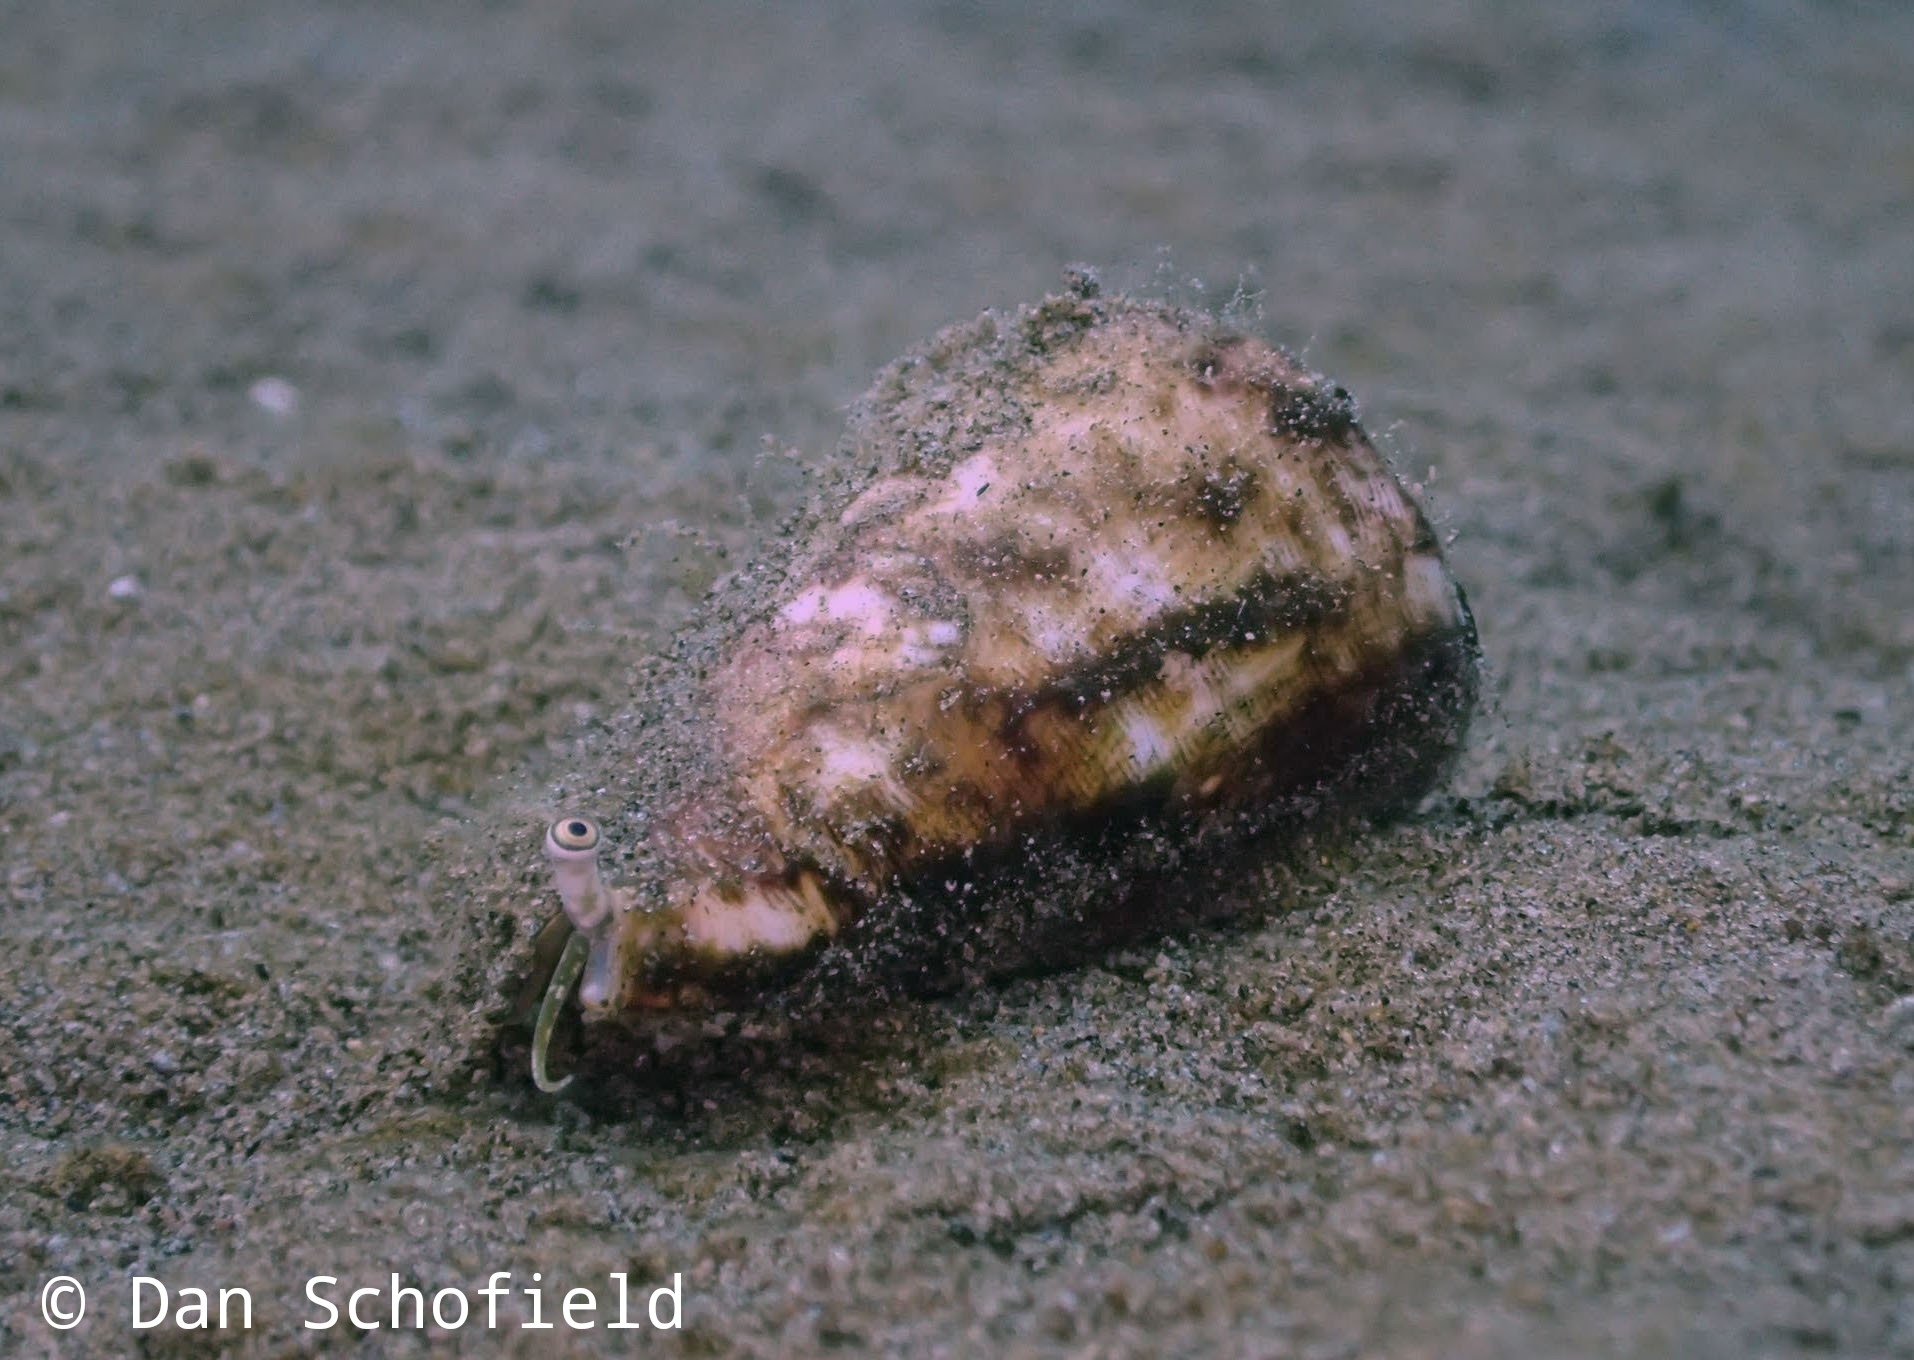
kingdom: Animalia
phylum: Mollusca
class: Gastropoda
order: Littorinimorpha
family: Strombidae
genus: Conomurex
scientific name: Conomurex luhuanus
